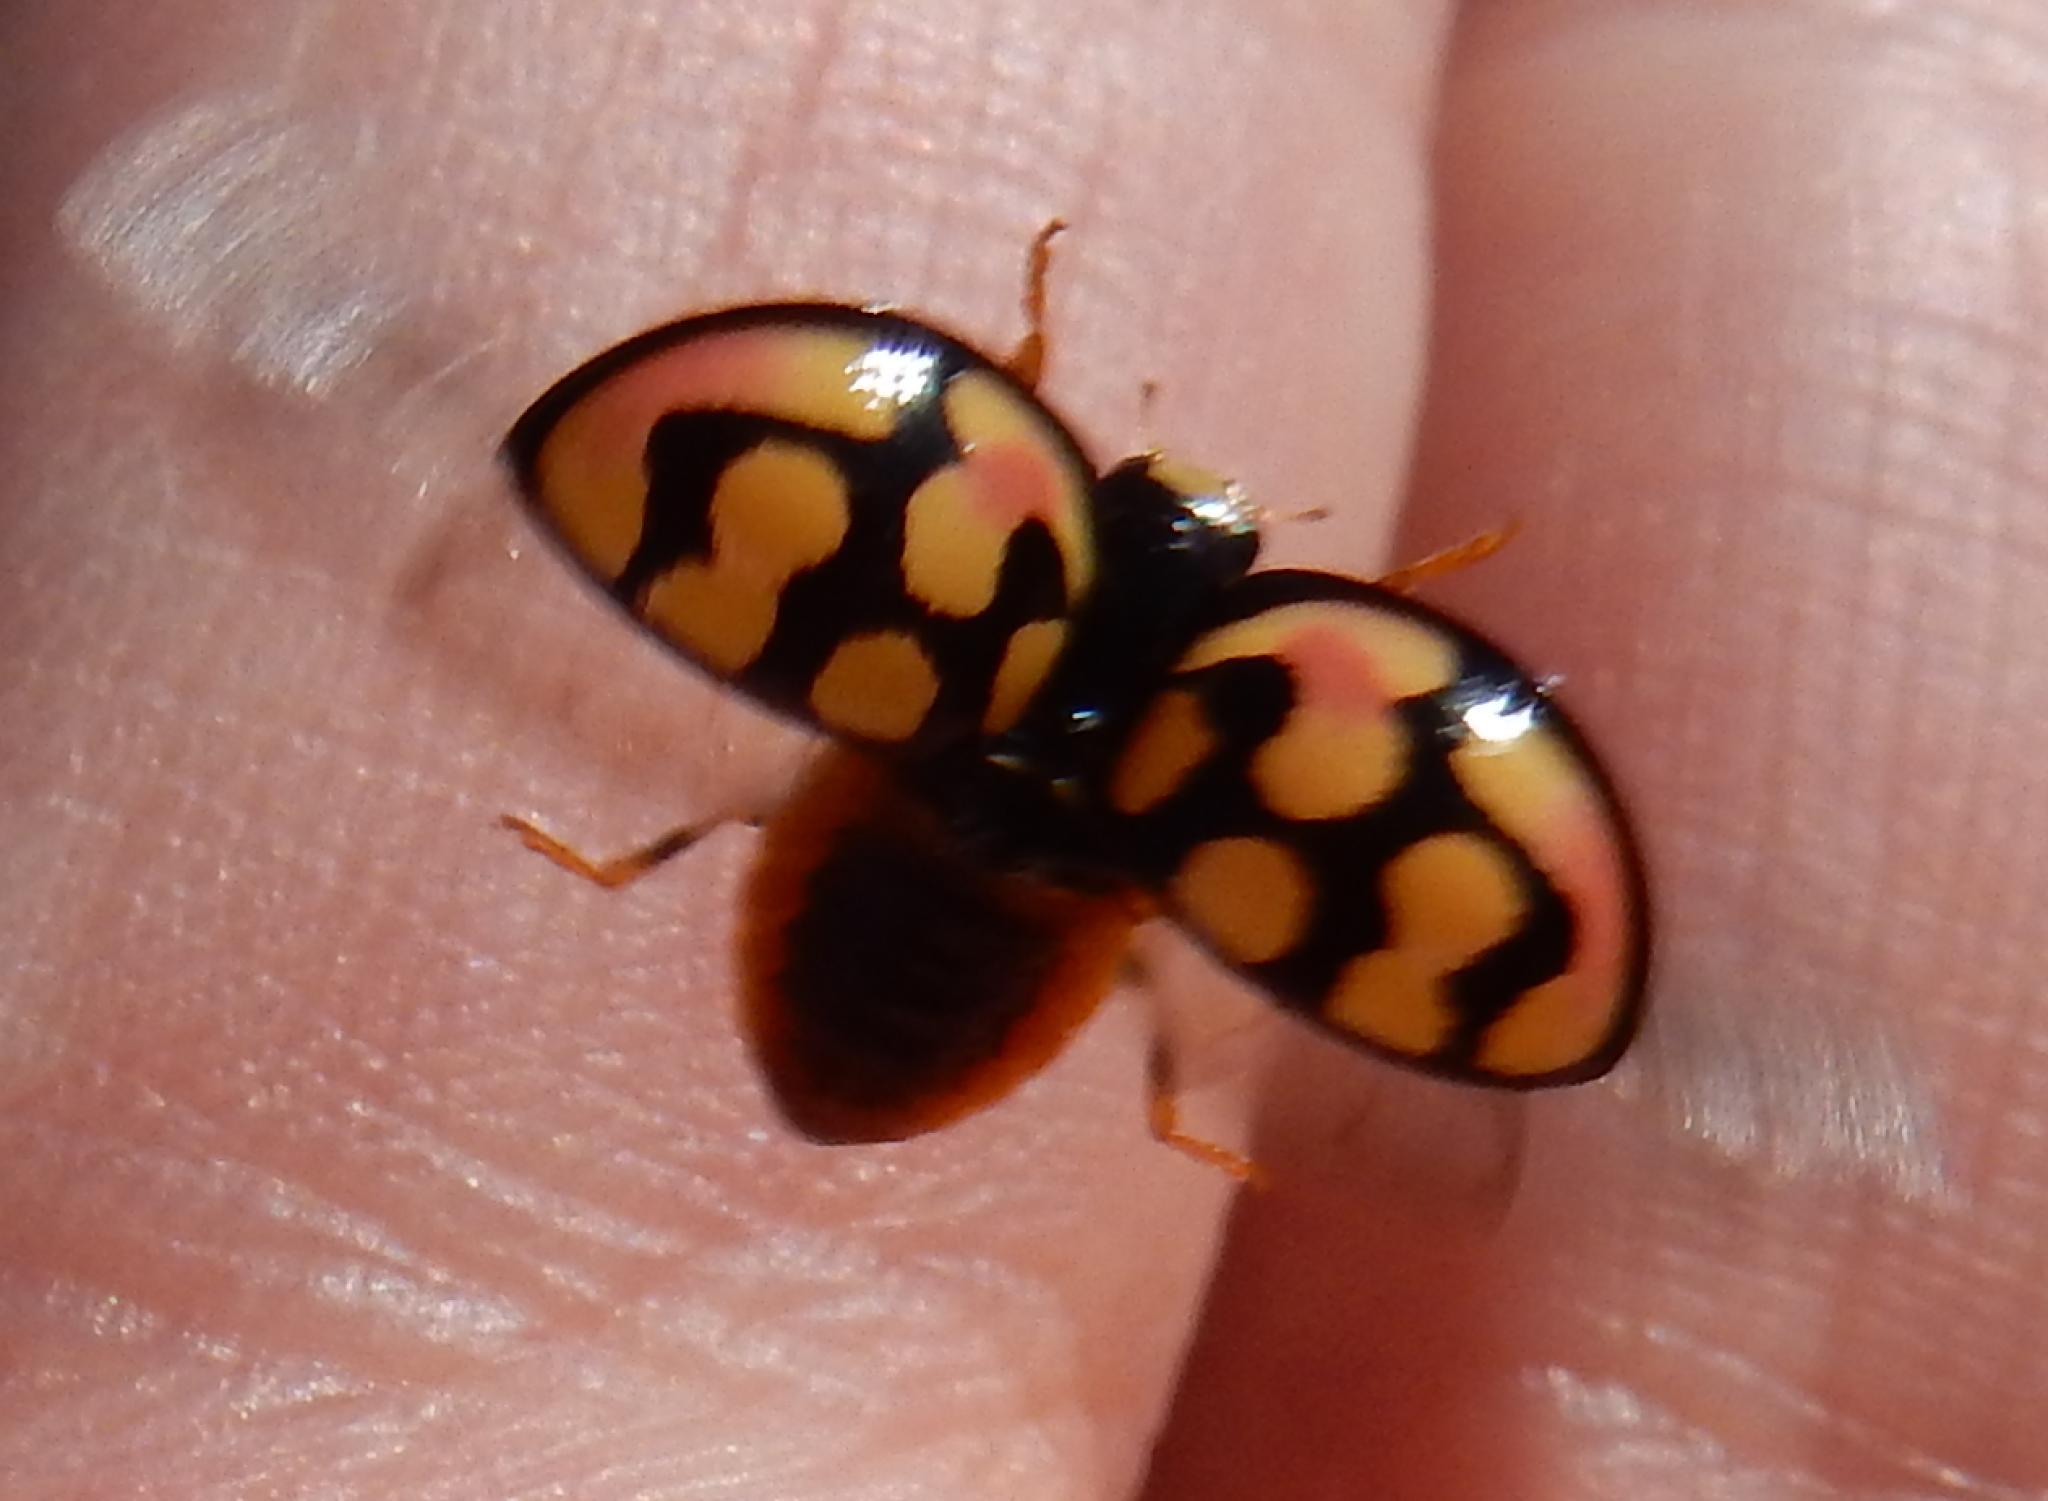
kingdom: Animalia
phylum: Arthropoda
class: Insecta
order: Coleoptera
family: Coccinellidae
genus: Cheilomenes
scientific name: Cheilomenes sulphurea
